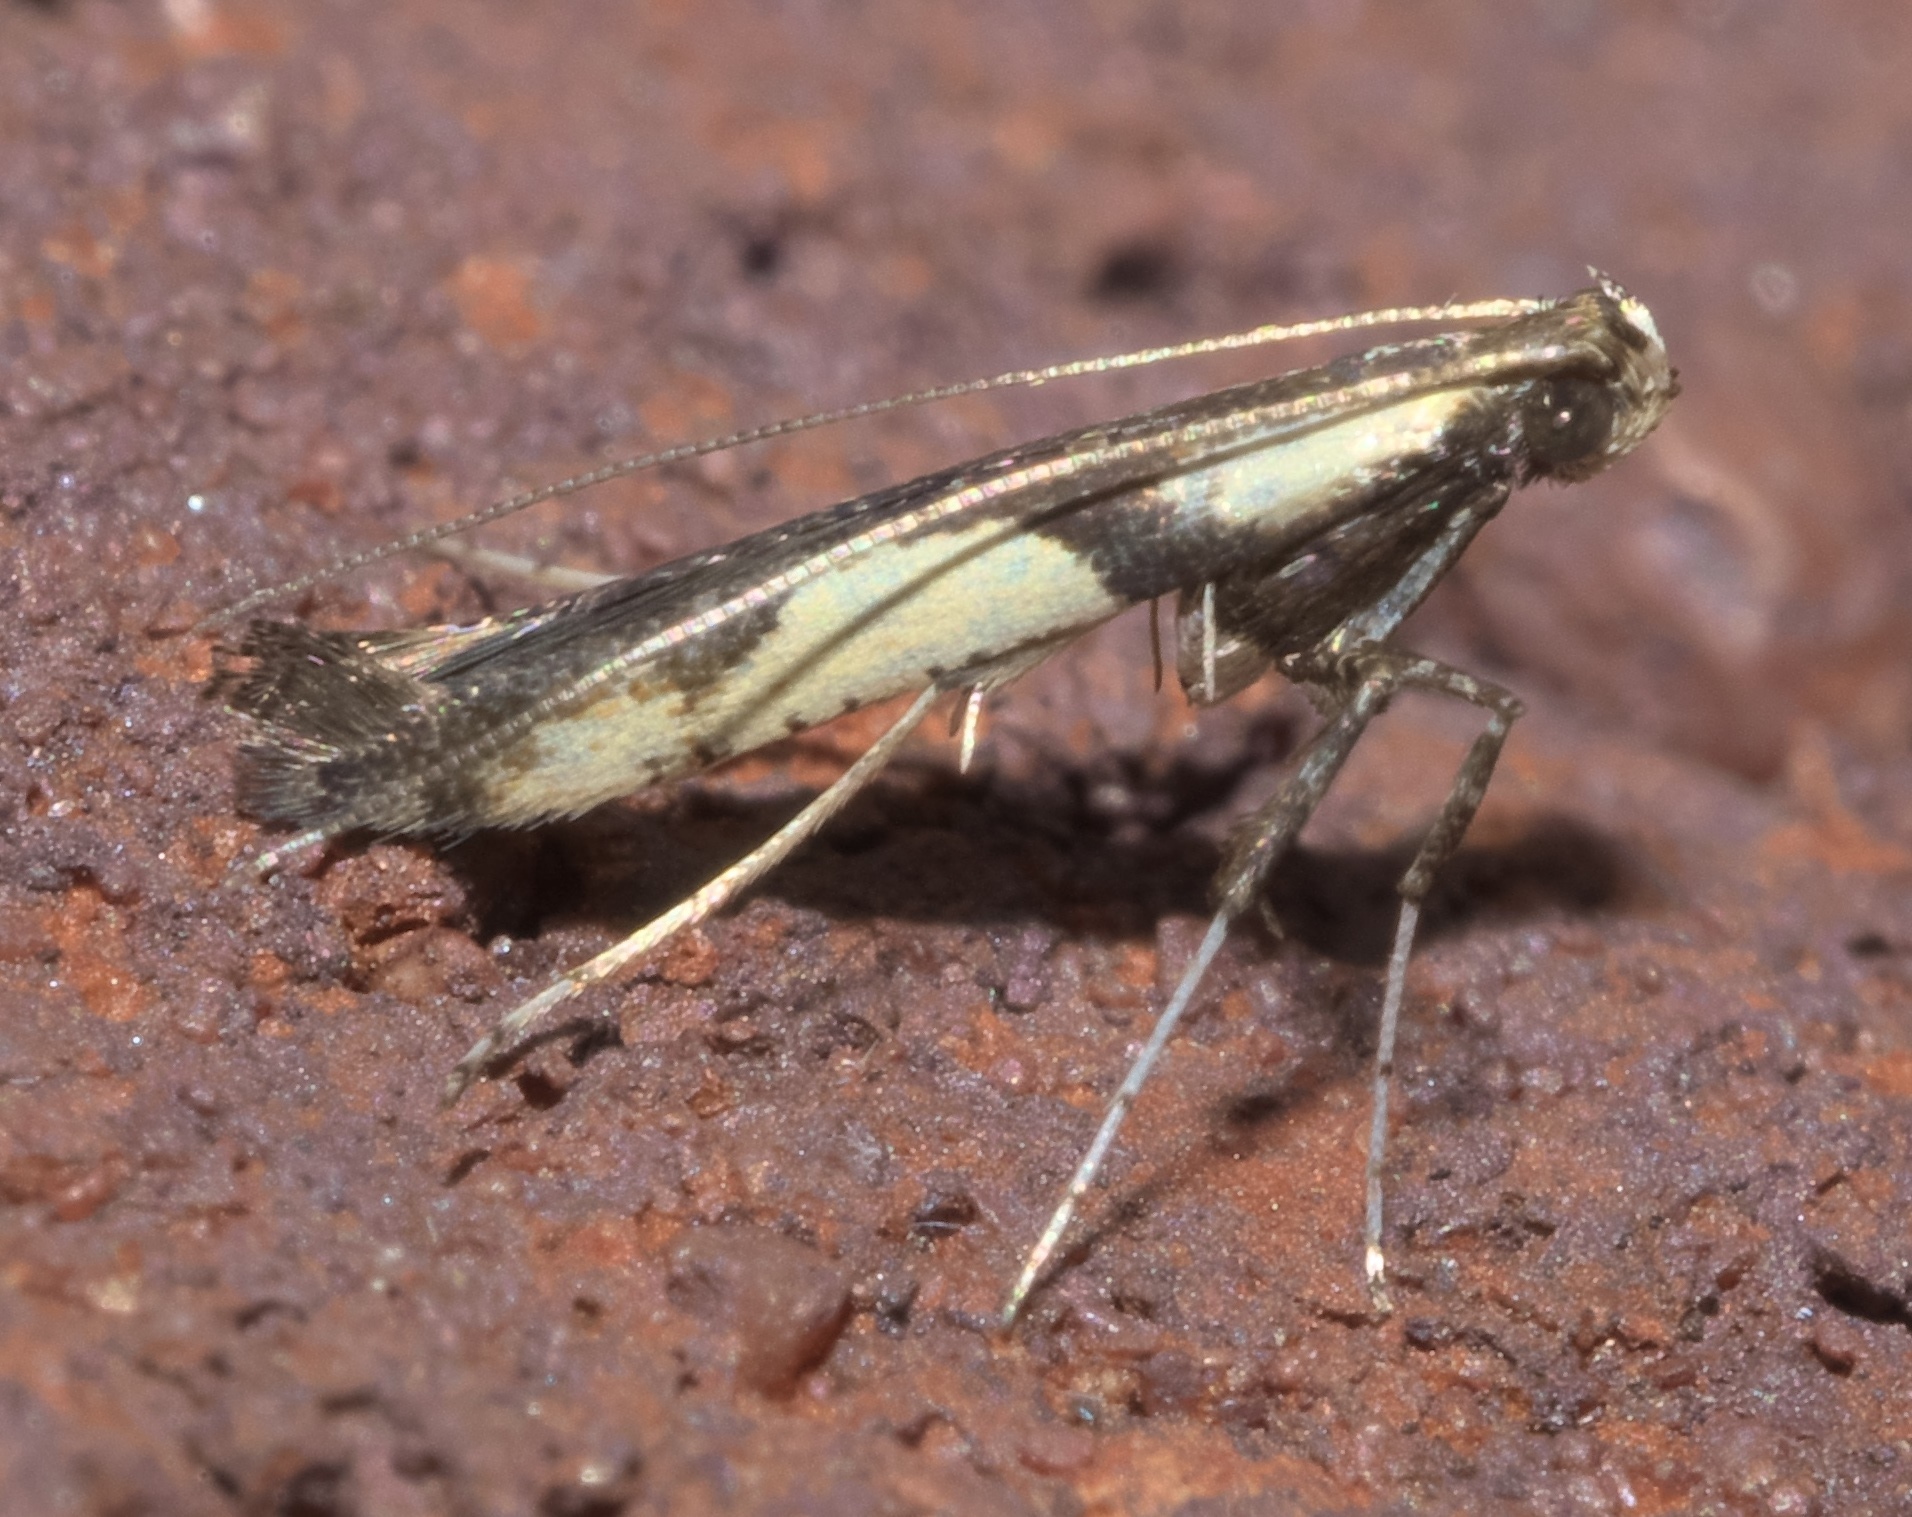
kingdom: Animalia
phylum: Arthropoda
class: Insecta
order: Lepidoptera
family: Gracillariidae
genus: Caloptilia
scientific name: Caloptilia blandella
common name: Walnut caloptilia moth
